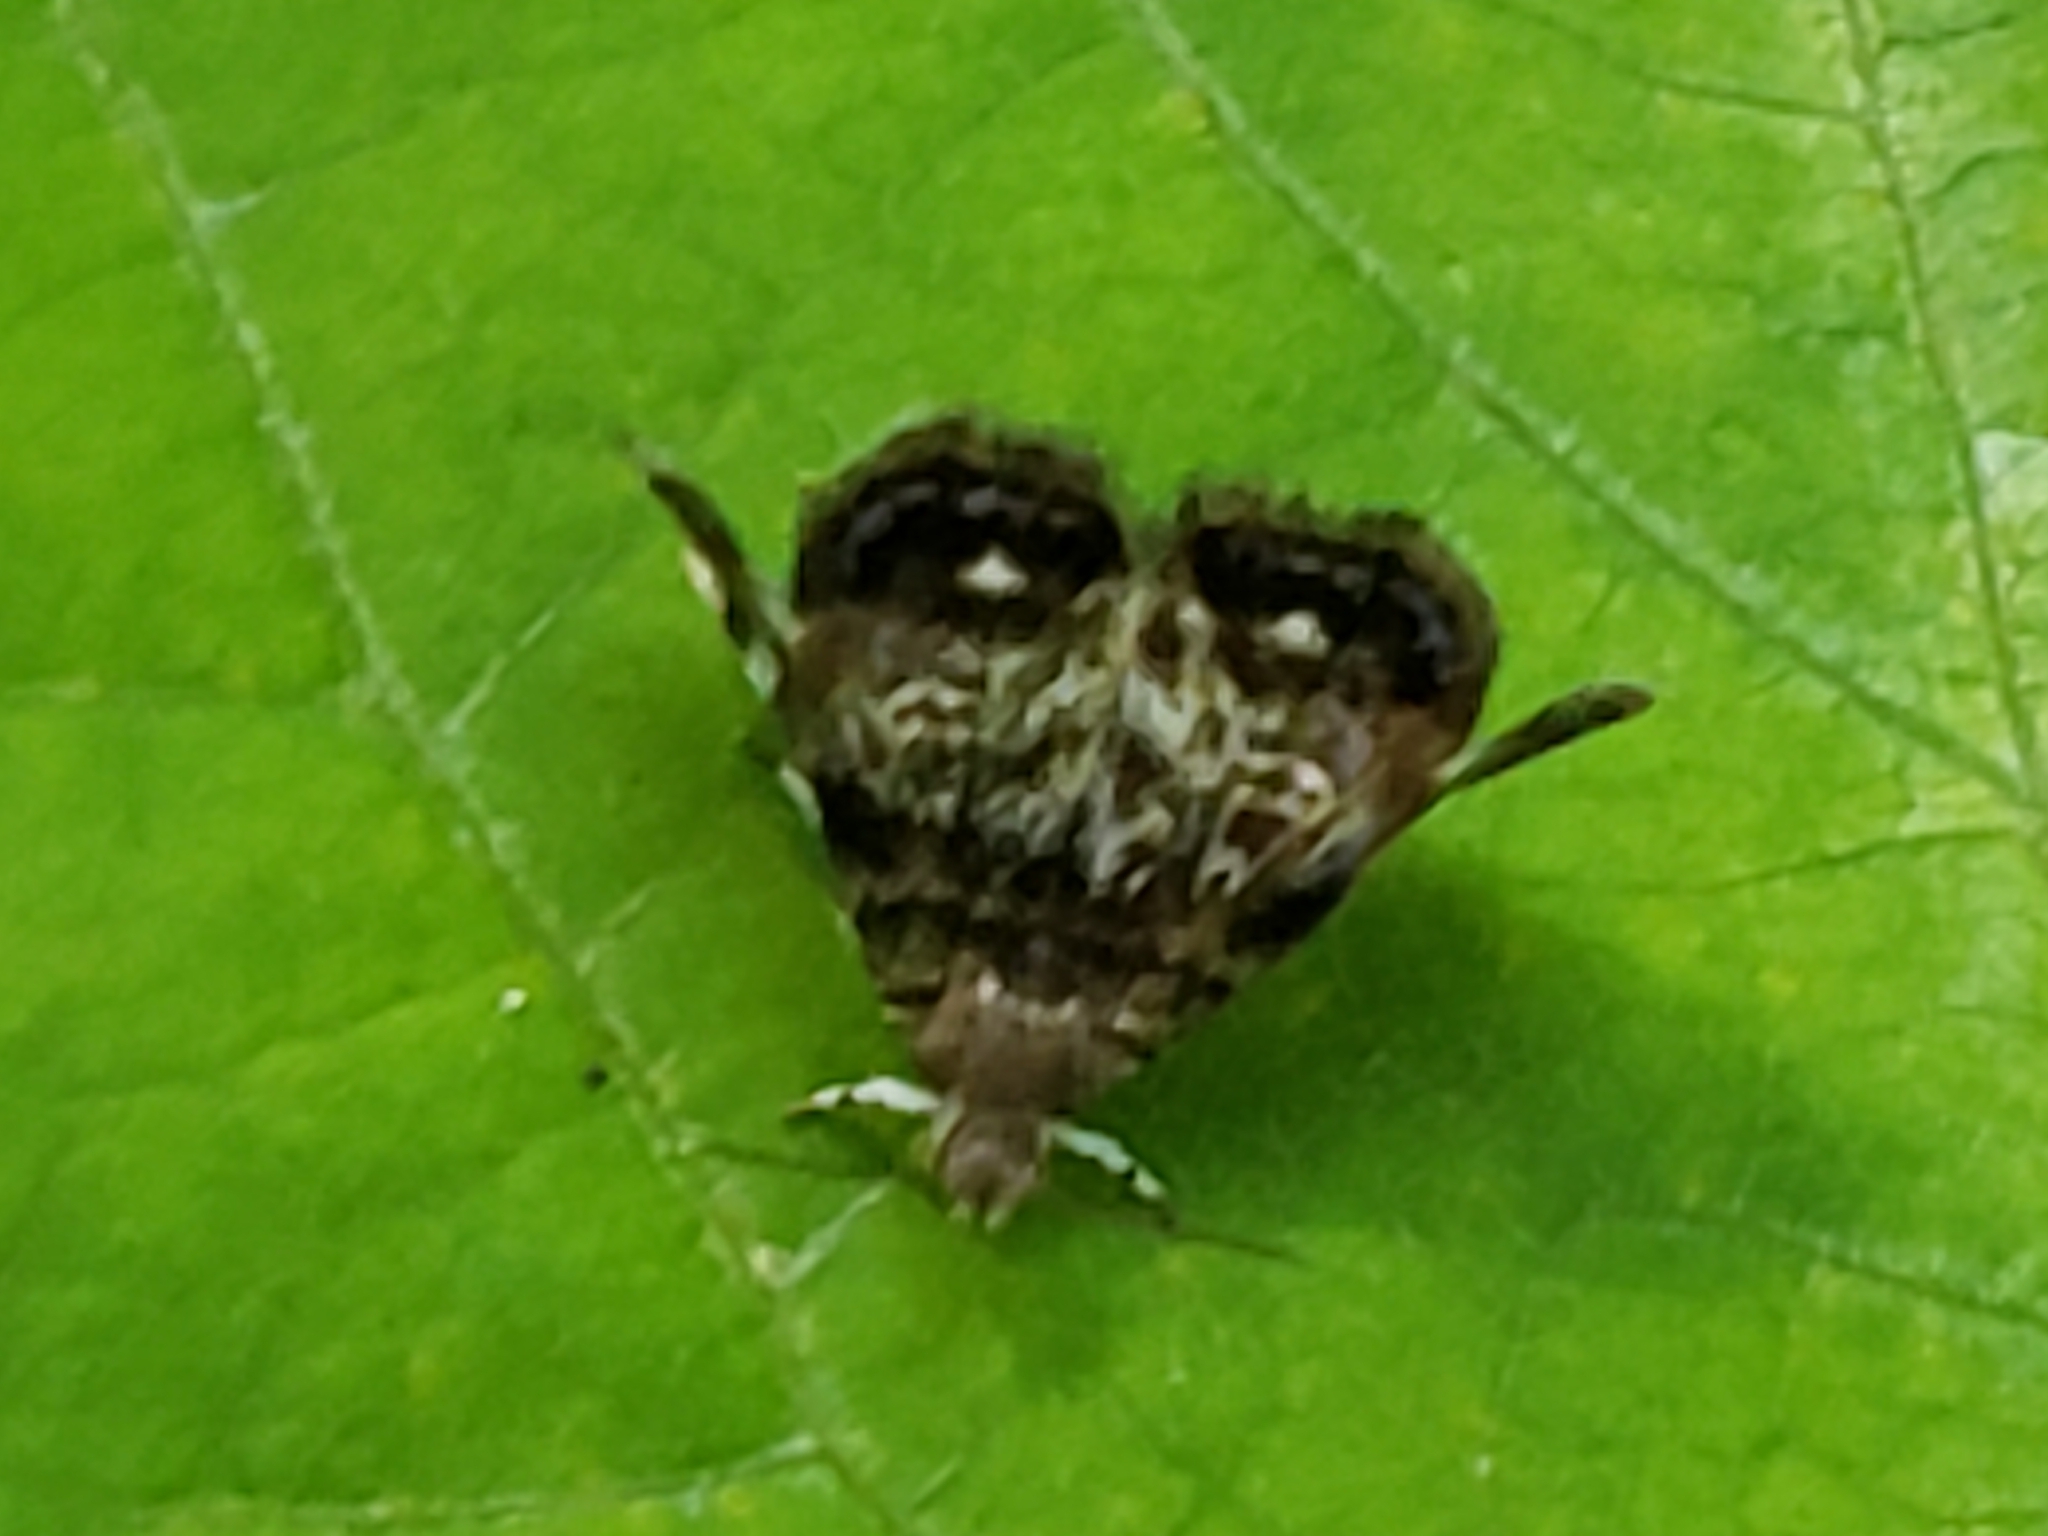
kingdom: Animalia
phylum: Arthropoda
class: Insecta
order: Lepidoptera
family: Choreutidae
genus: Brenthia
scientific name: Brenthia pavonacella
